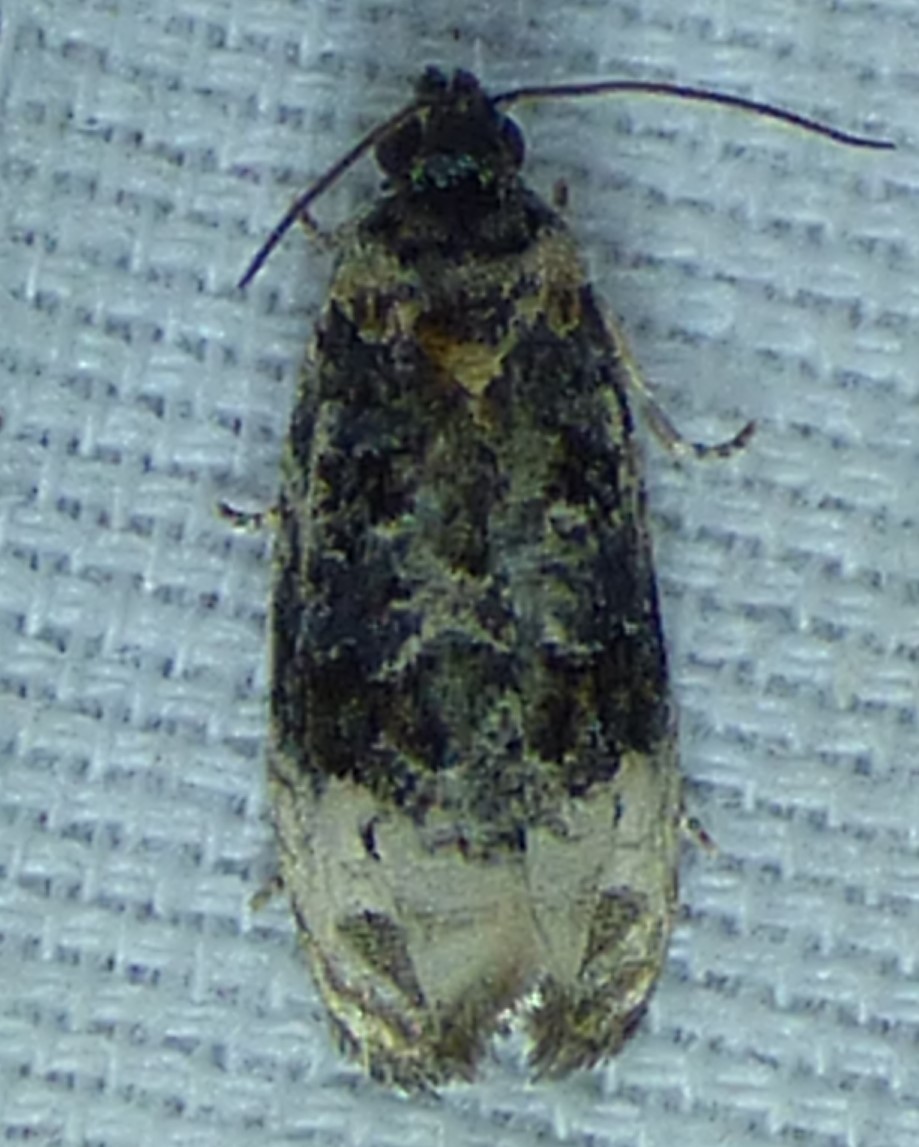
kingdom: Animalia
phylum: Arthropoda
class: Insecta
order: Lepidoptera
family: Tortricidae
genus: Hedya
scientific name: Hedya separatana
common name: Pink-washed leafroller moth
